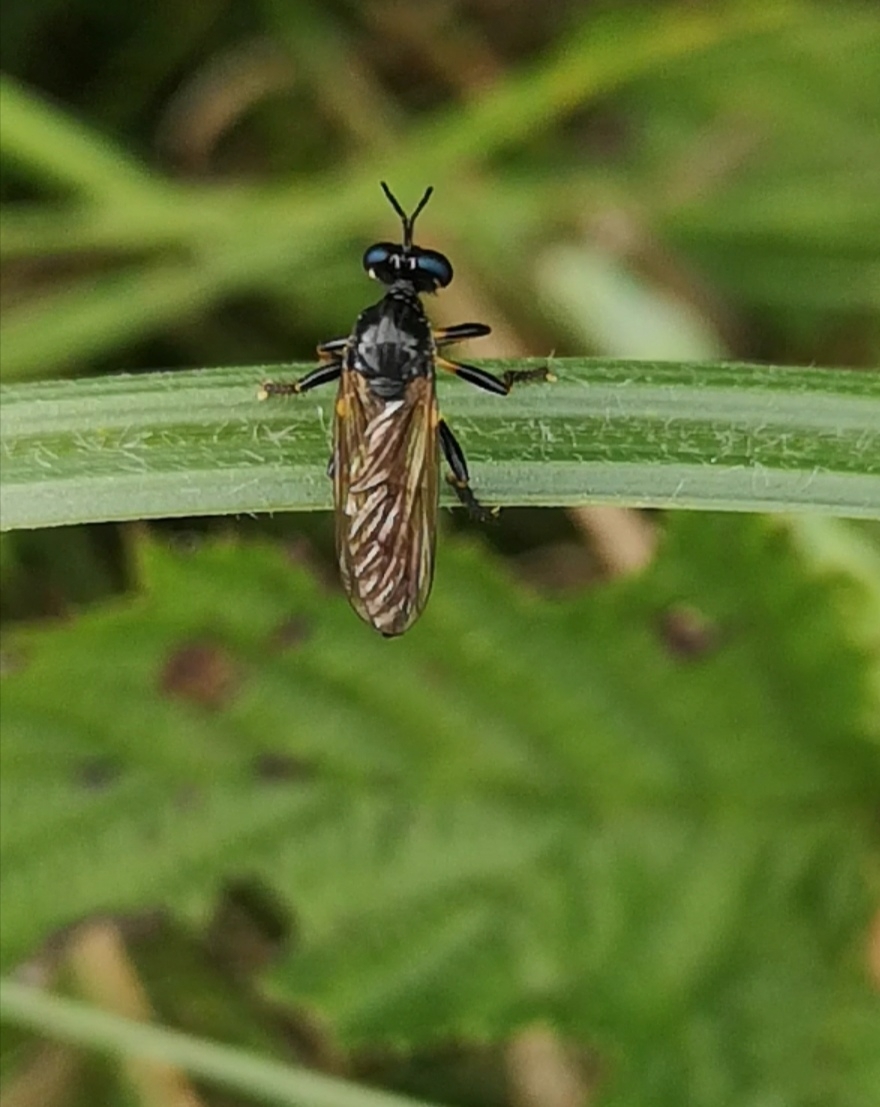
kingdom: Animalia
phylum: Arthropoda
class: Insecta
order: Diptera
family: Asilidae
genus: Dioctria
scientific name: Dioctria cothurnata
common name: Scarce red-legged robberfly
